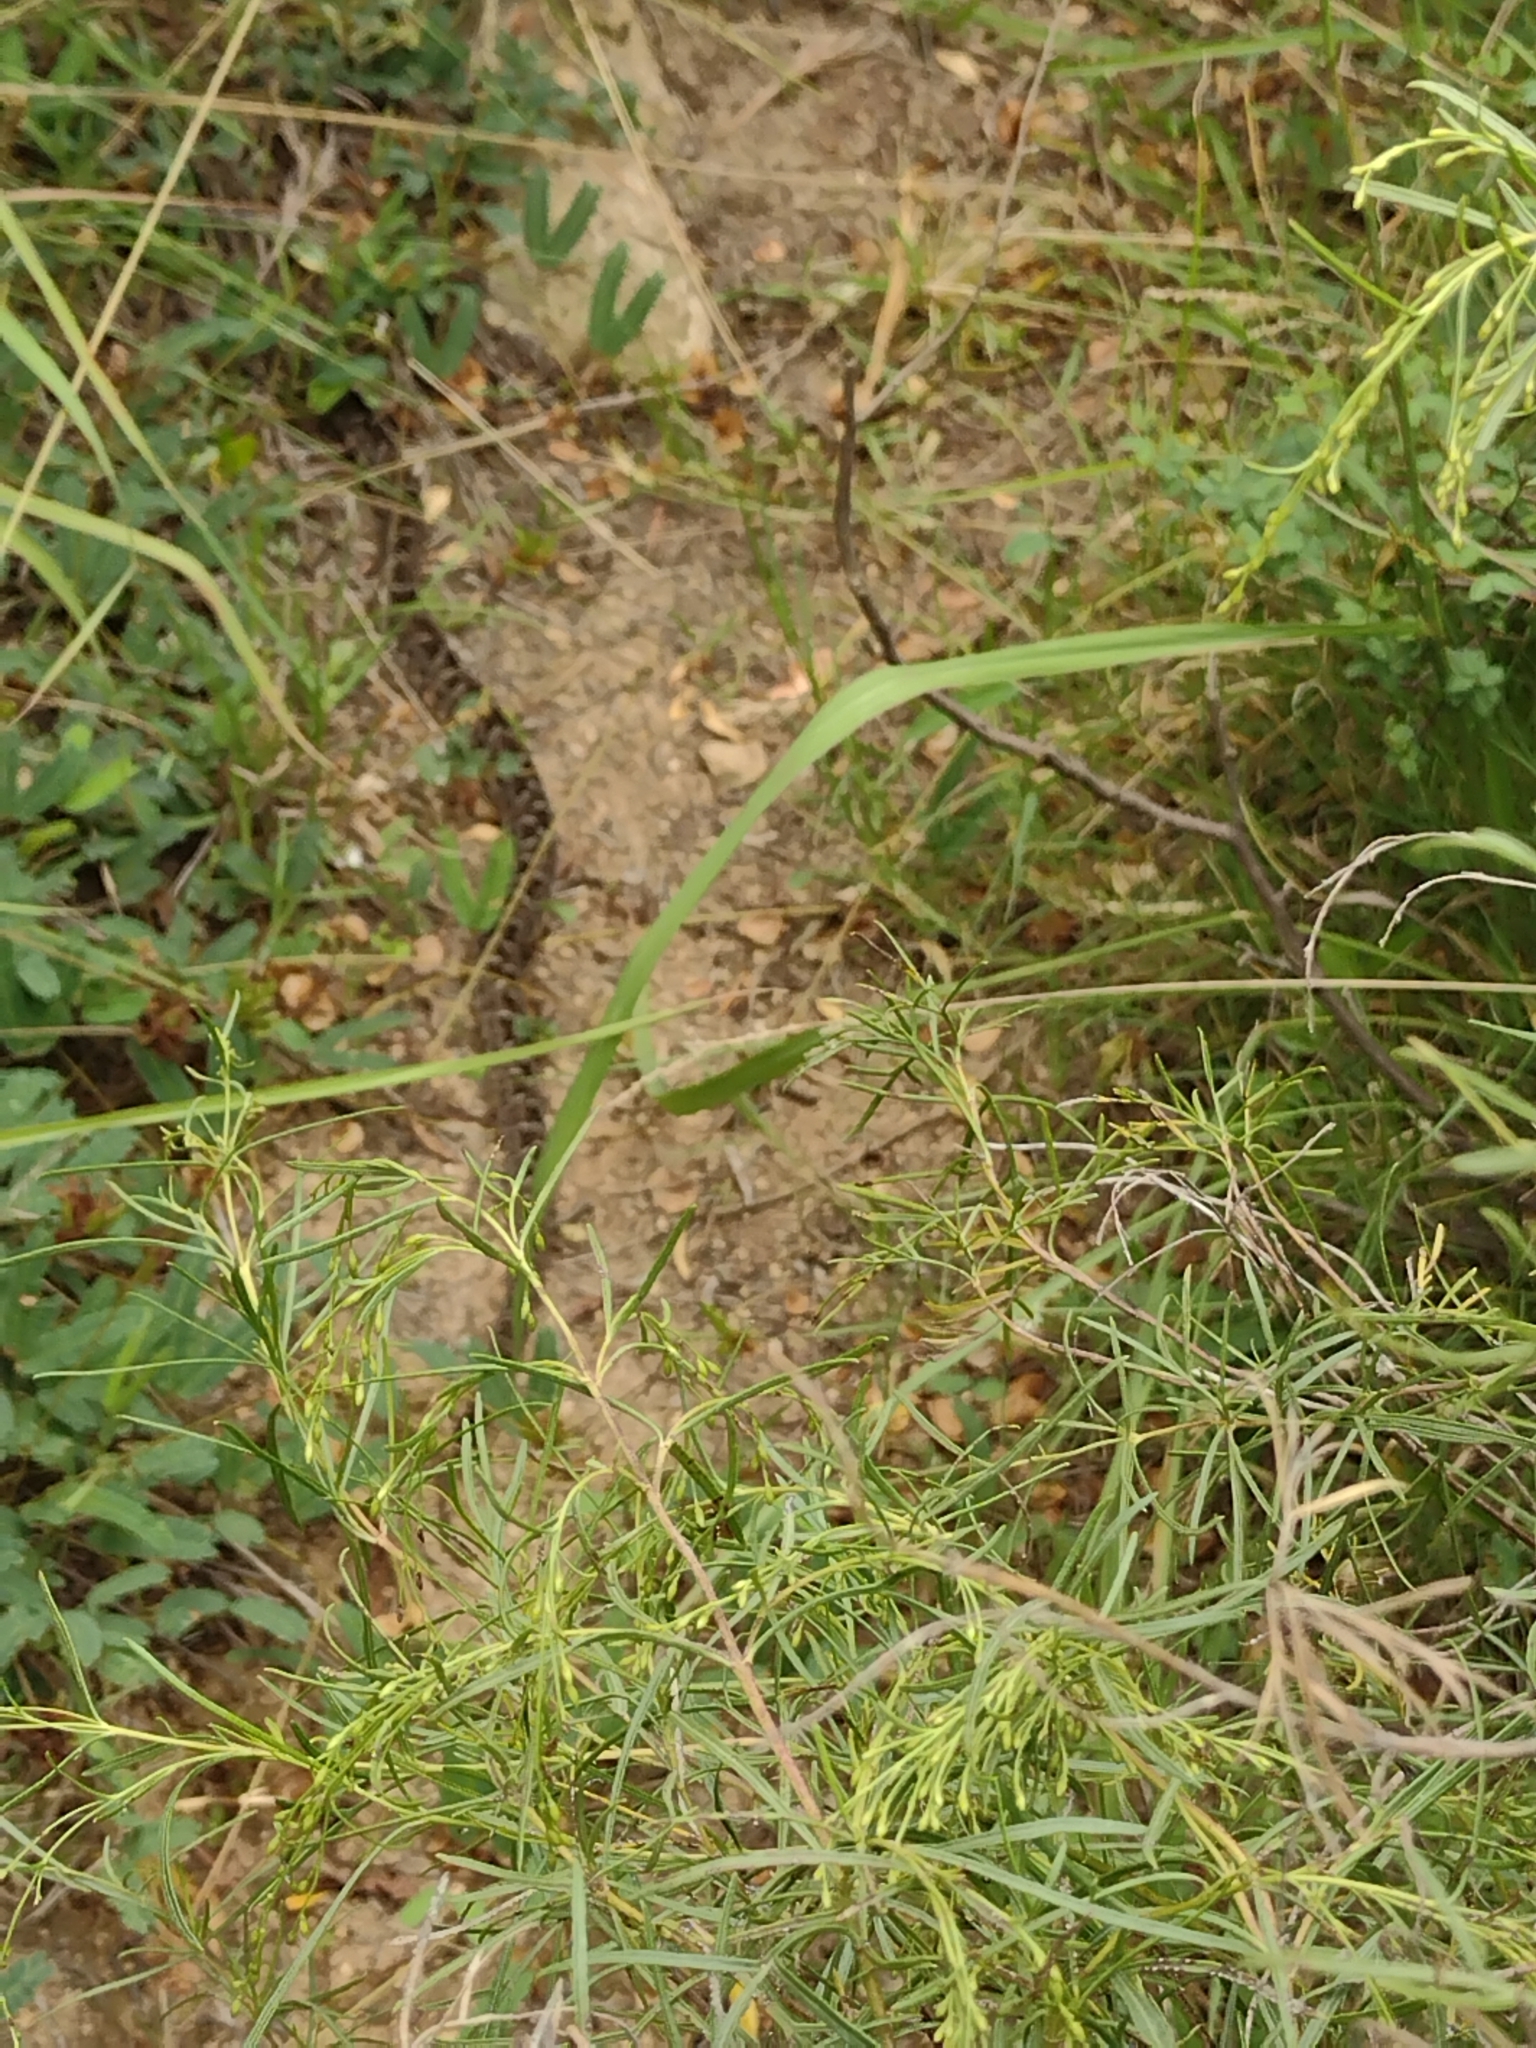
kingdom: Animalia
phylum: Chordata
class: Squamata
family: Viperidae
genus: Bothrops
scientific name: Bothrops pubescens
